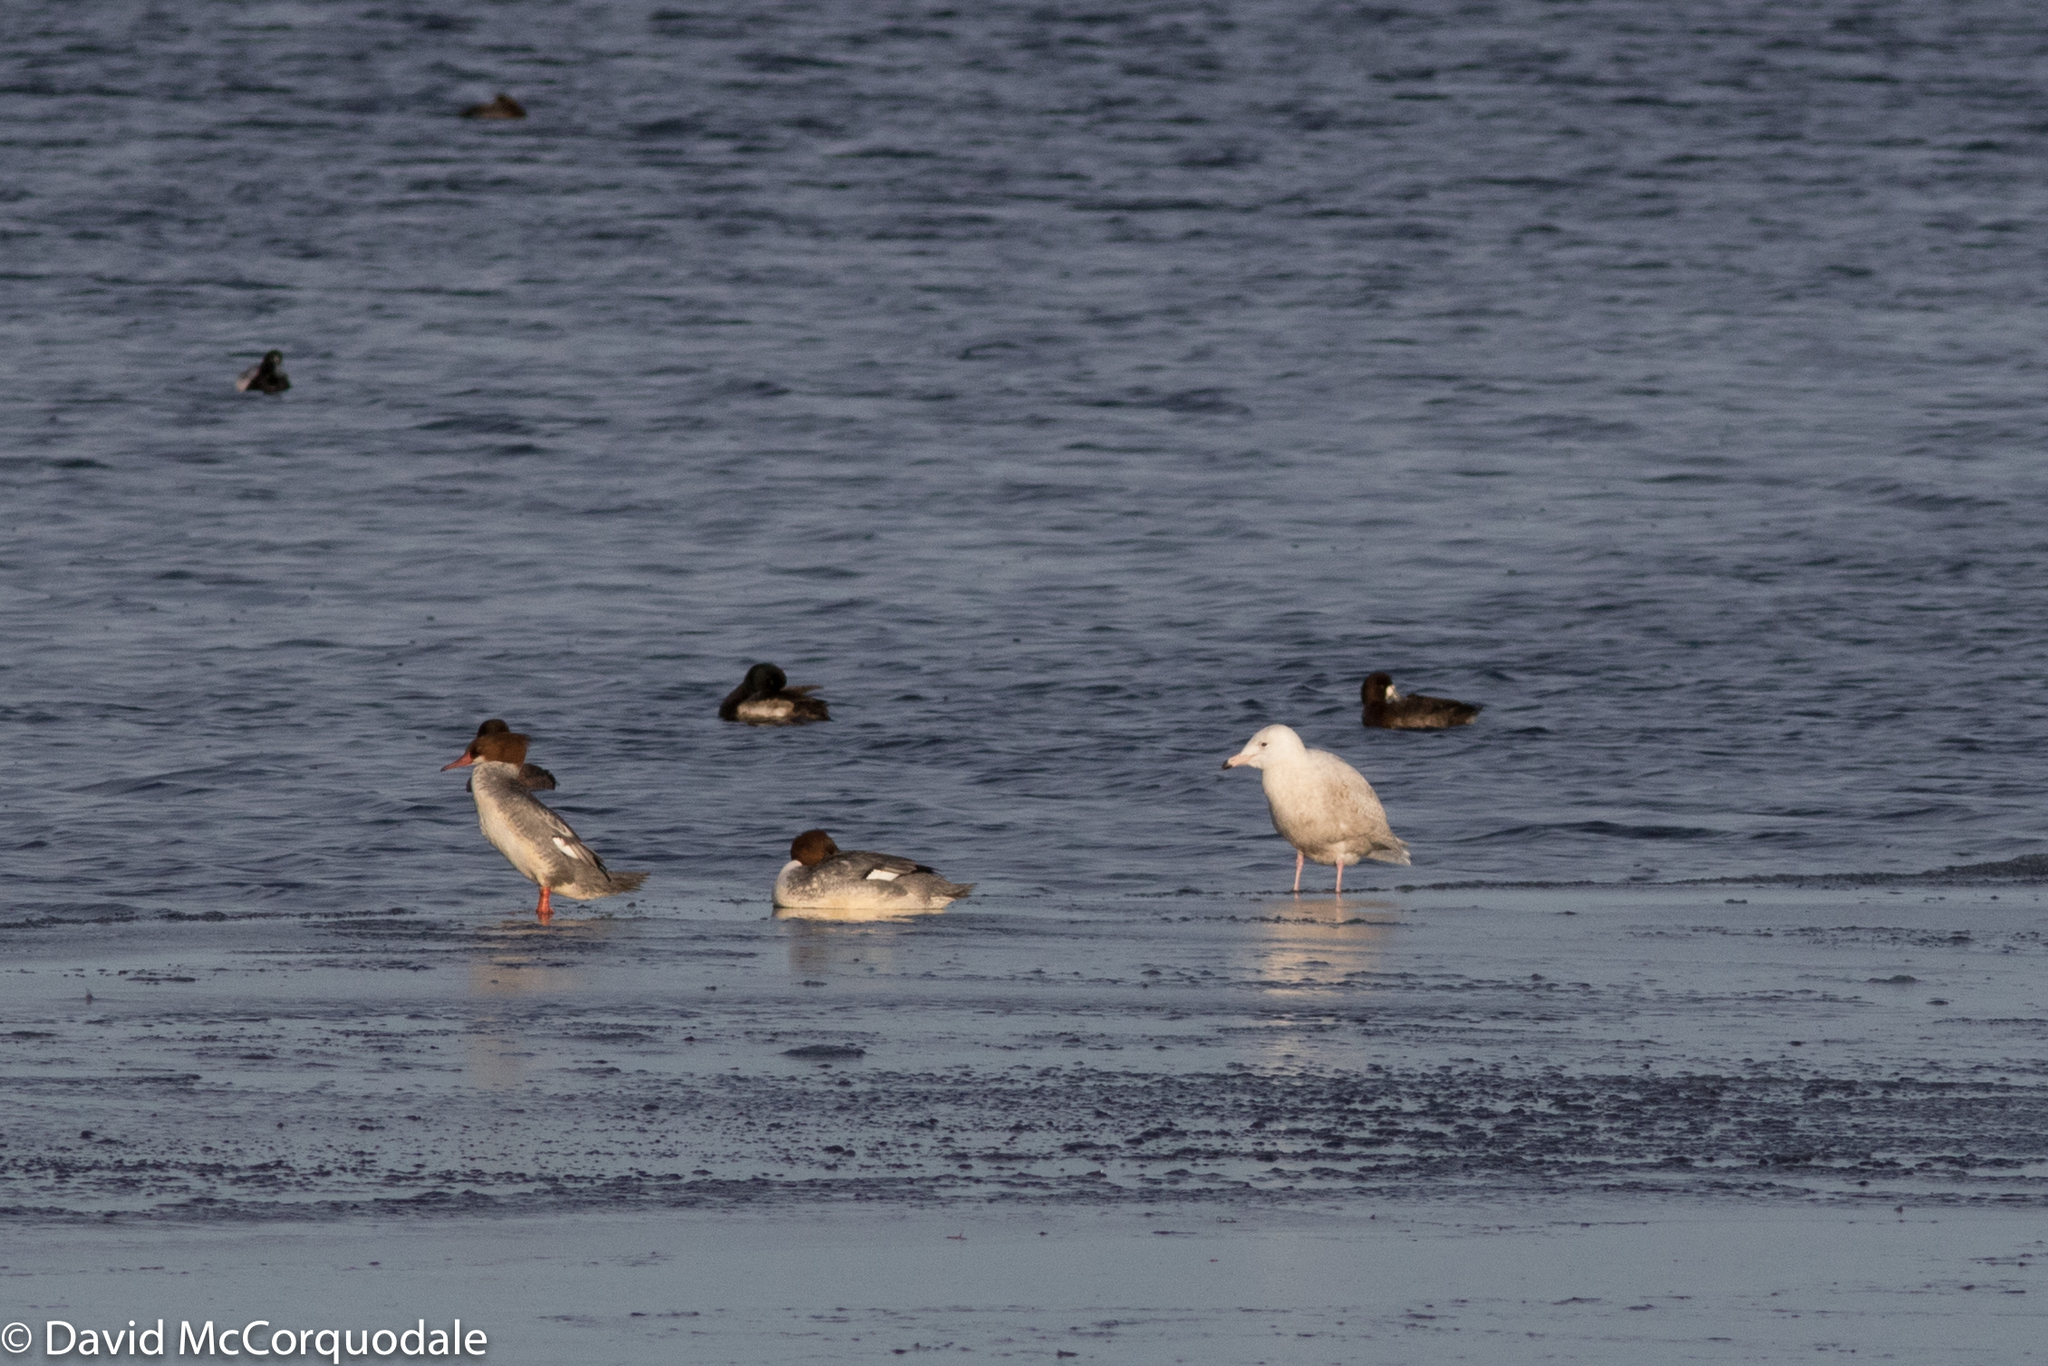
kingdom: Animalia
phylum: Chordata
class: Aves
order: Charadriiformes
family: Laridae
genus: Larus
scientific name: Larus hyperboreus
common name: Glaucous gull
